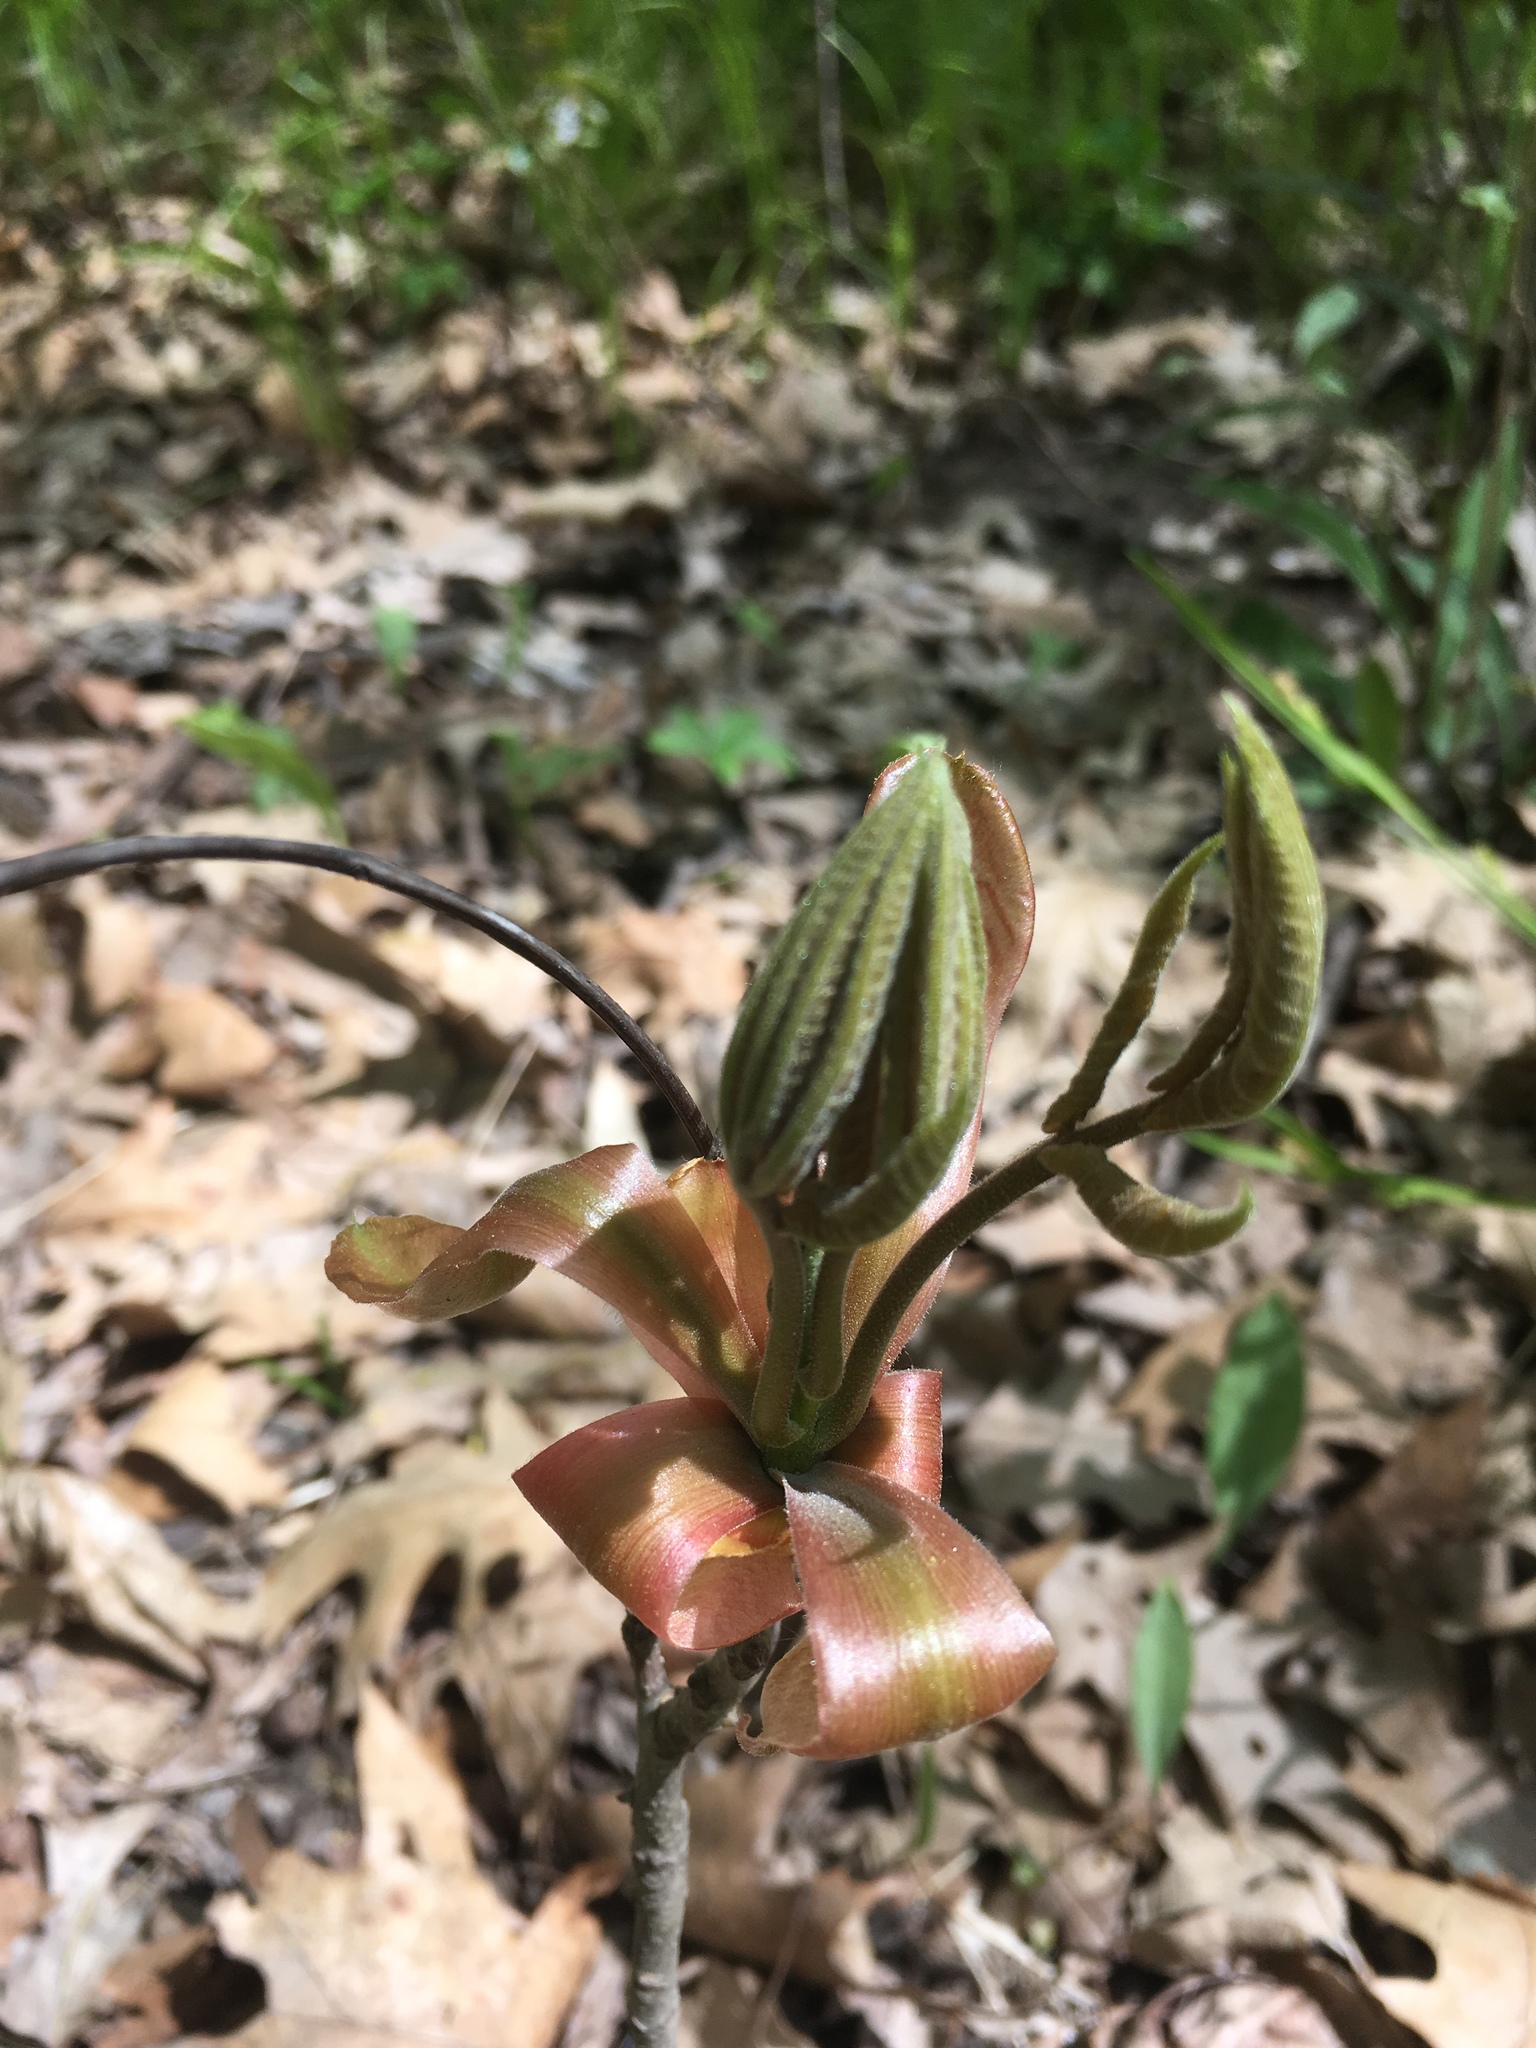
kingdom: Plantae
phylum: Tracheophyta
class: Magnoliopsida
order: Fagales
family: Juglandaceae
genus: Carya
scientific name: Carya ovata
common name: Shagbark hickory
